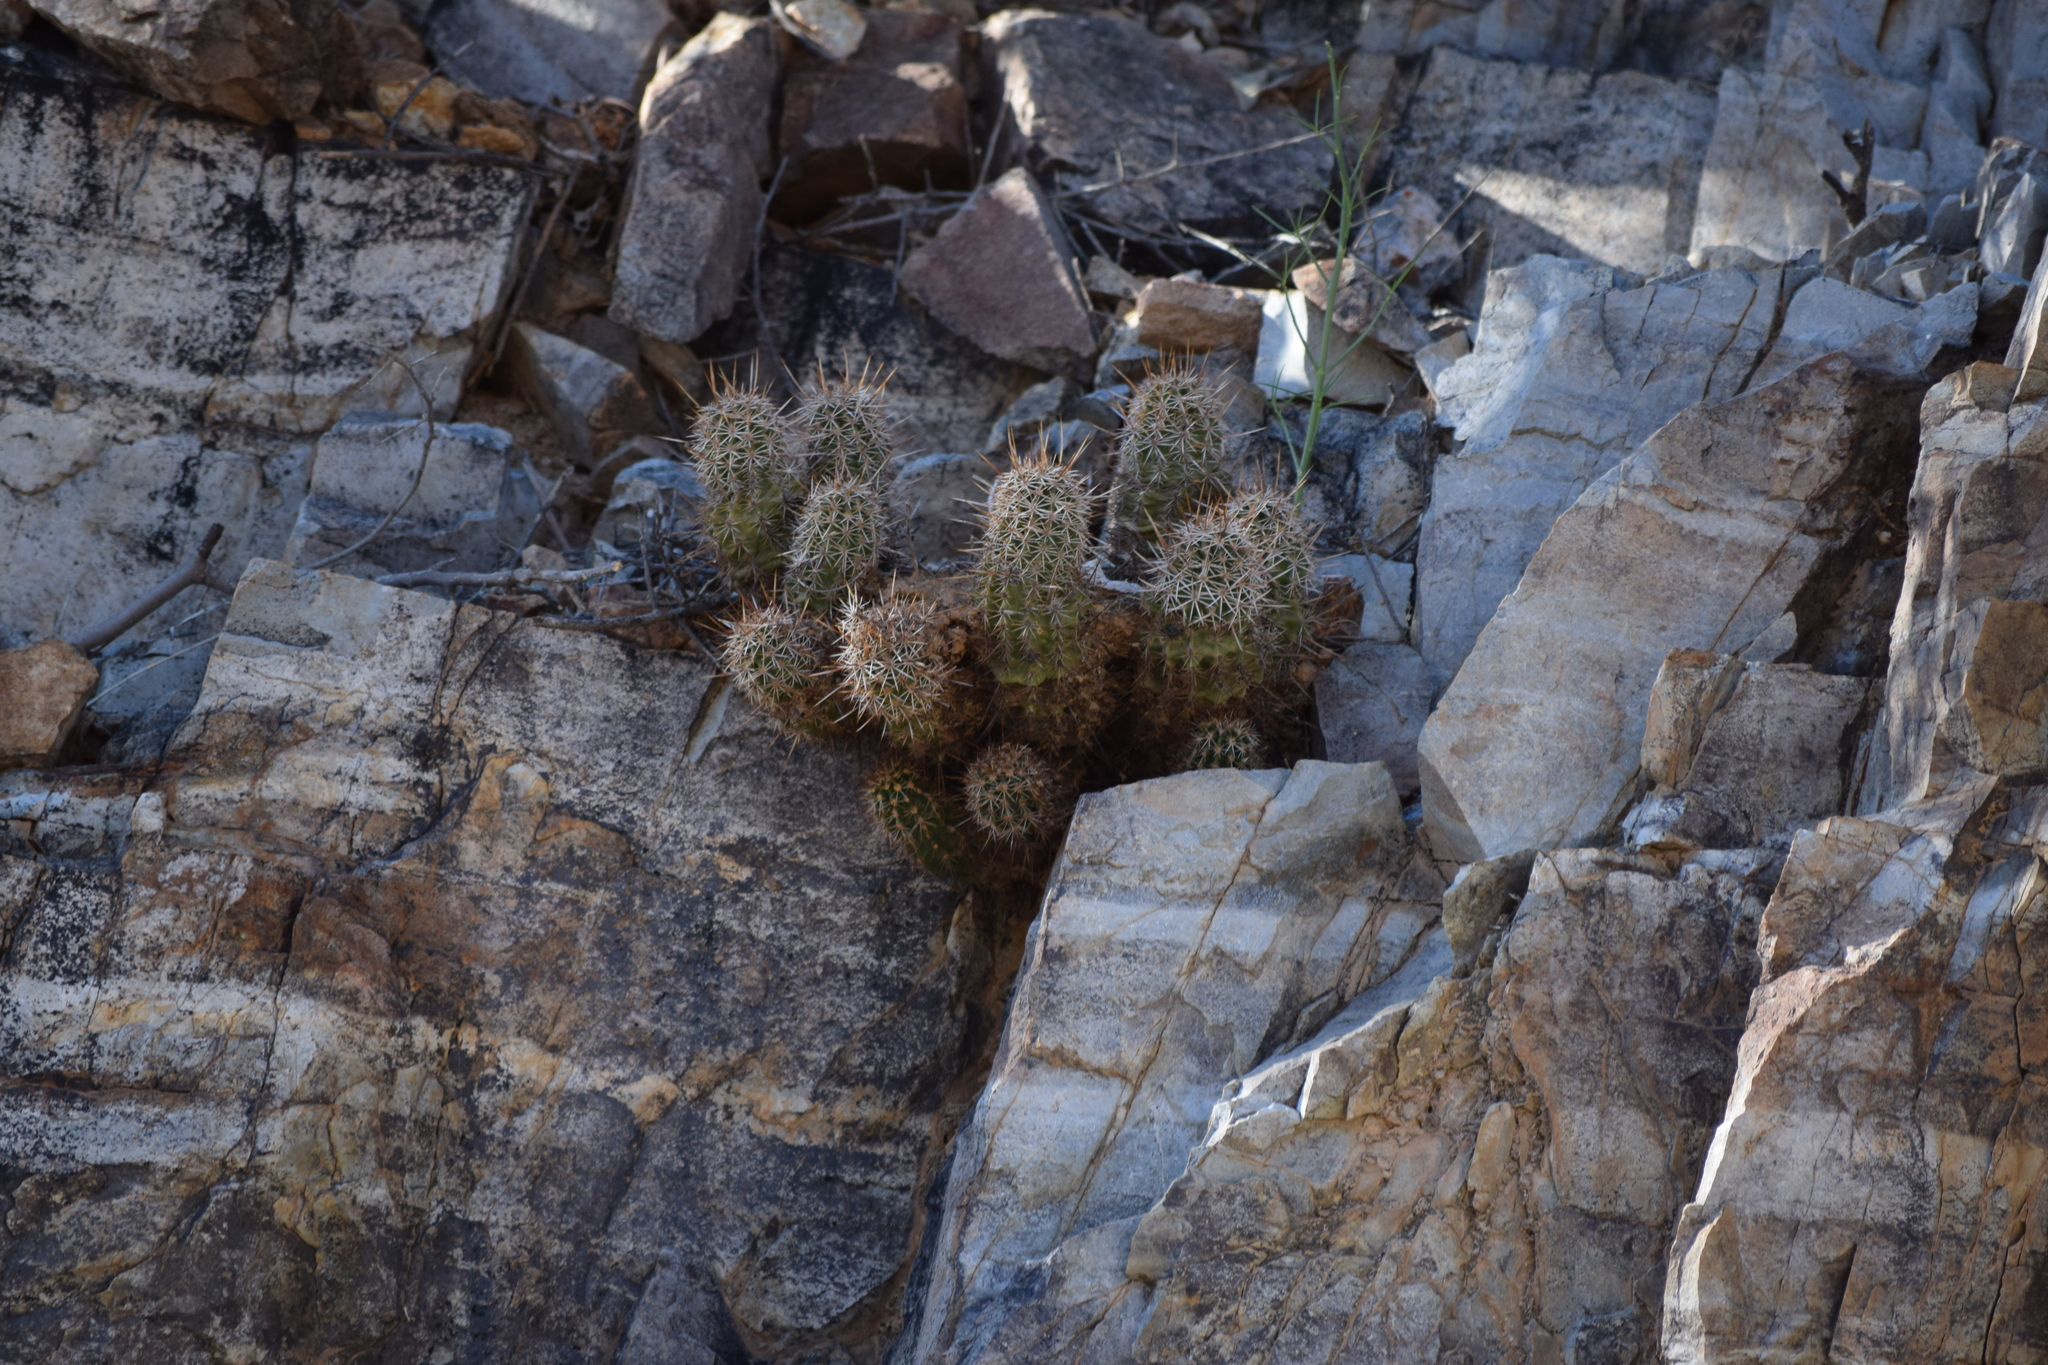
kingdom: Plantae
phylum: Tracheophyta
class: Magnoliopsida
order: Caryophyllales
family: Cactaceae
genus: Echinocereus
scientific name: Echinocereus fasciculatus
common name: Bundle hedgehog
